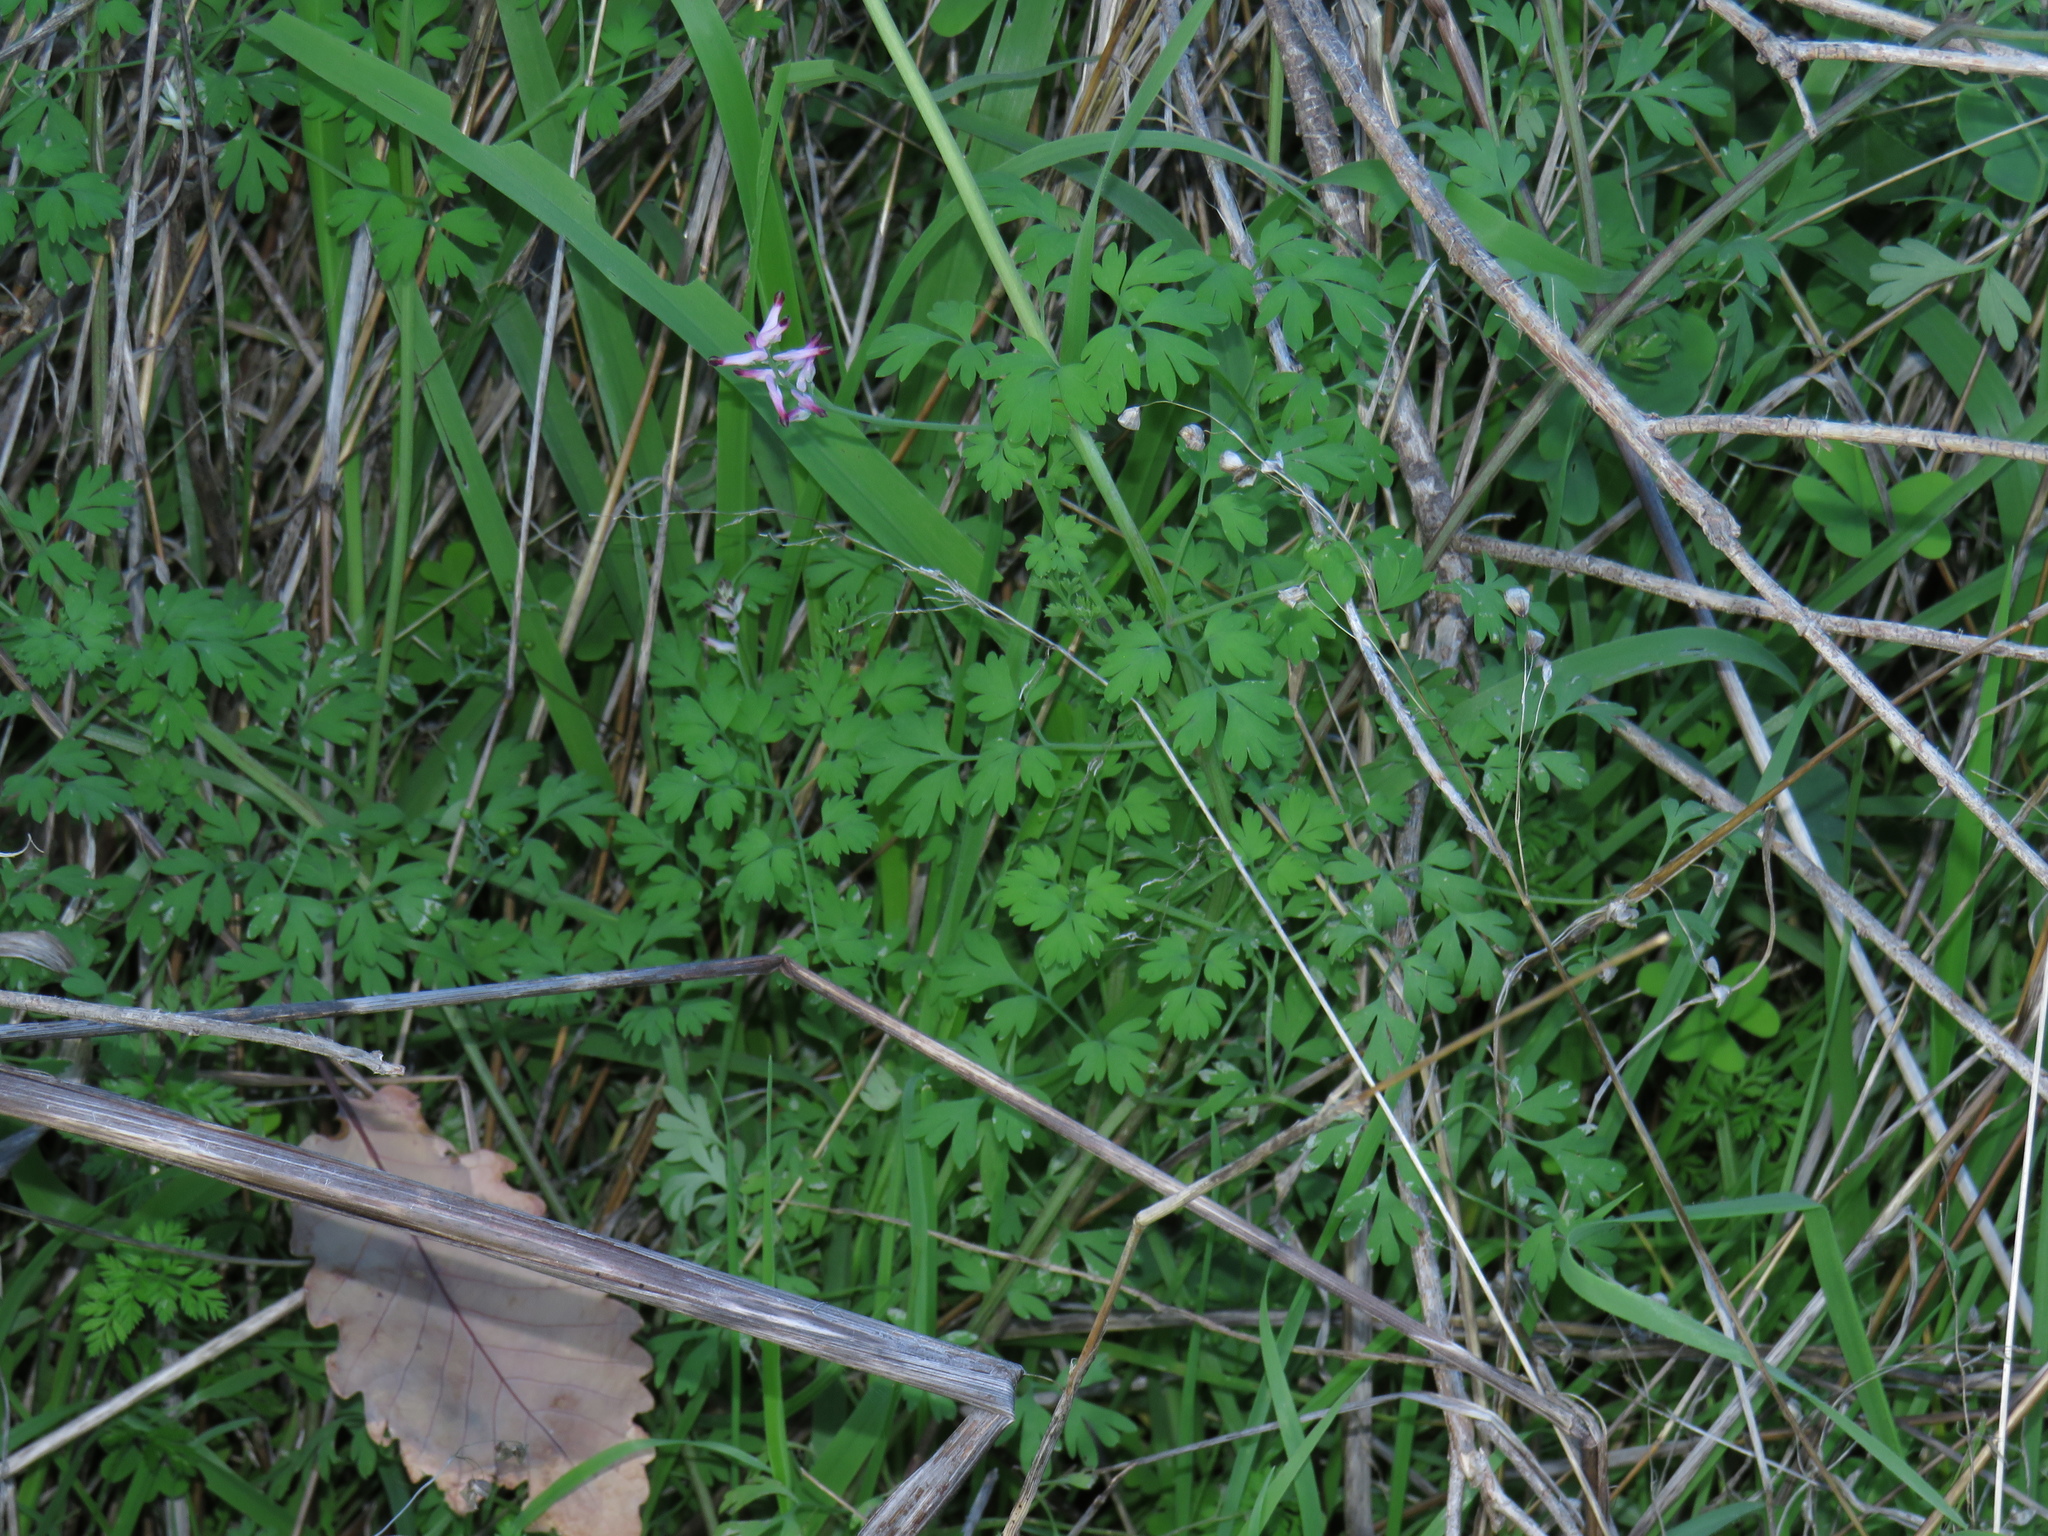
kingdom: Plantae
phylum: Tracheophyta
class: Magnoliopsida
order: Ranunculales
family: Papaveraceae
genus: Fumaria
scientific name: Fumaria muralis
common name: Common ramping-fumitory
